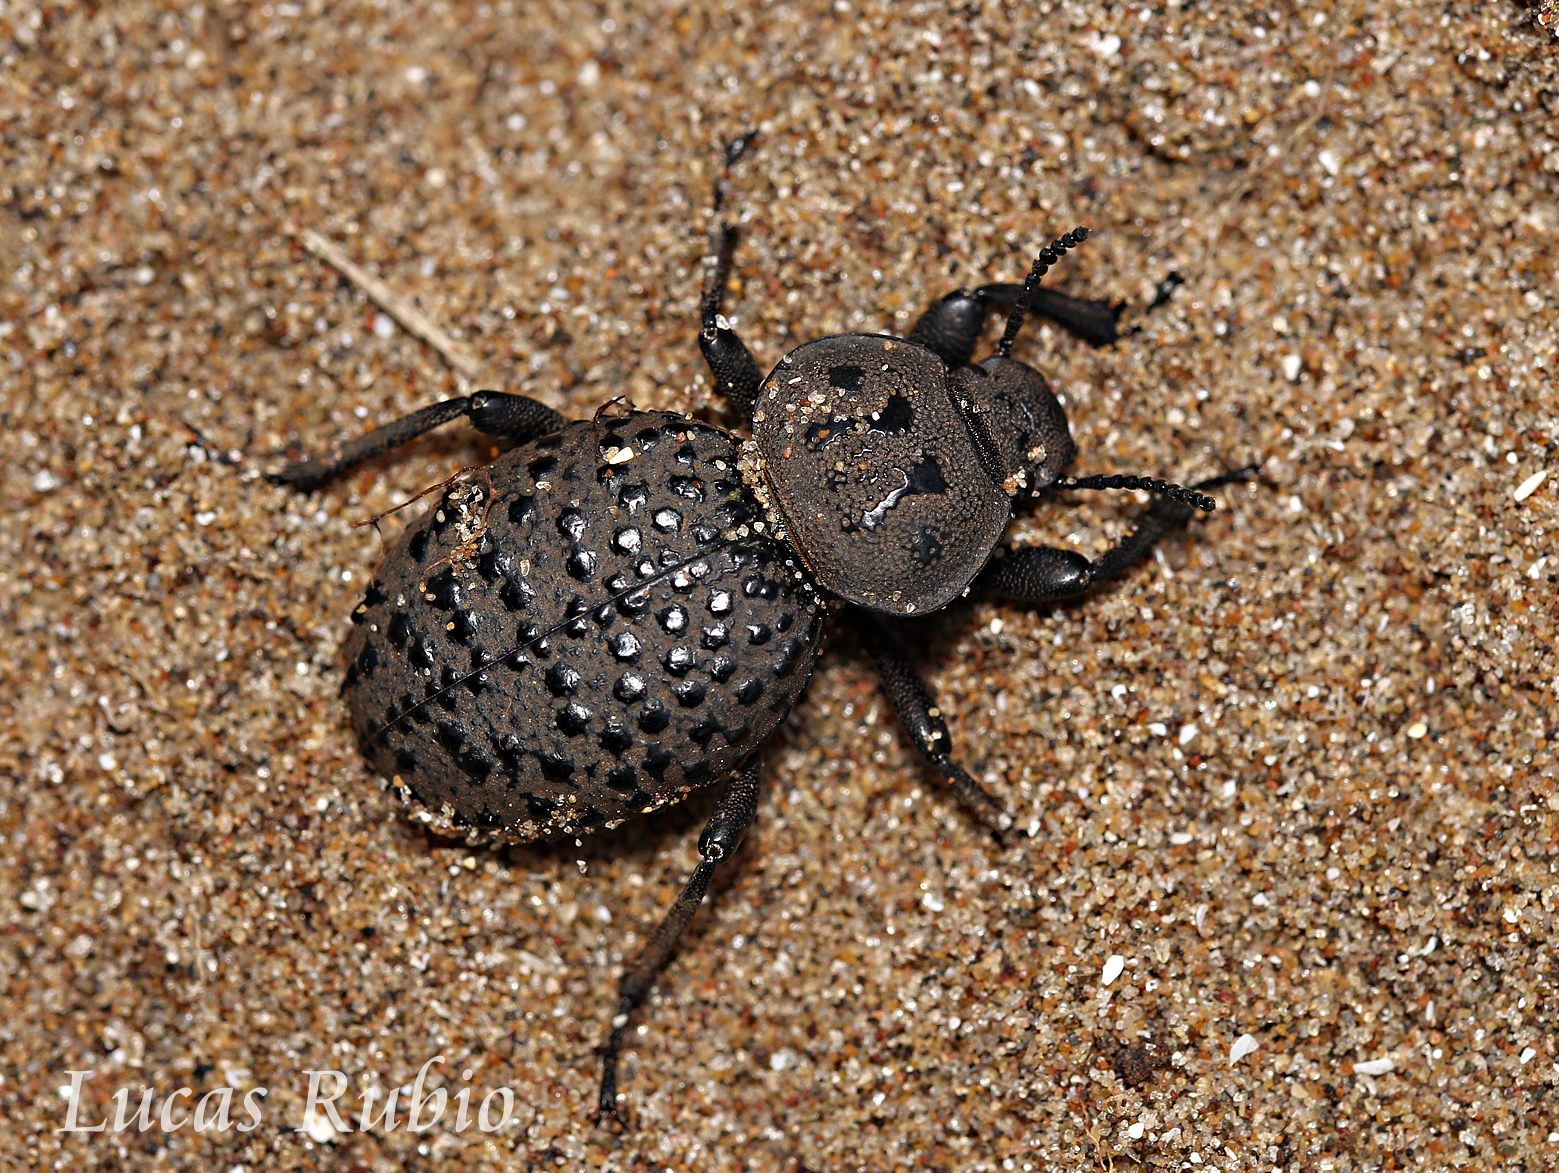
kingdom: Animalia
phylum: Arthropoda
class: Insecta
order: Coleoptera
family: Tenebrionidae
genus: Scotobius
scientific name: Scotobius pilularius
